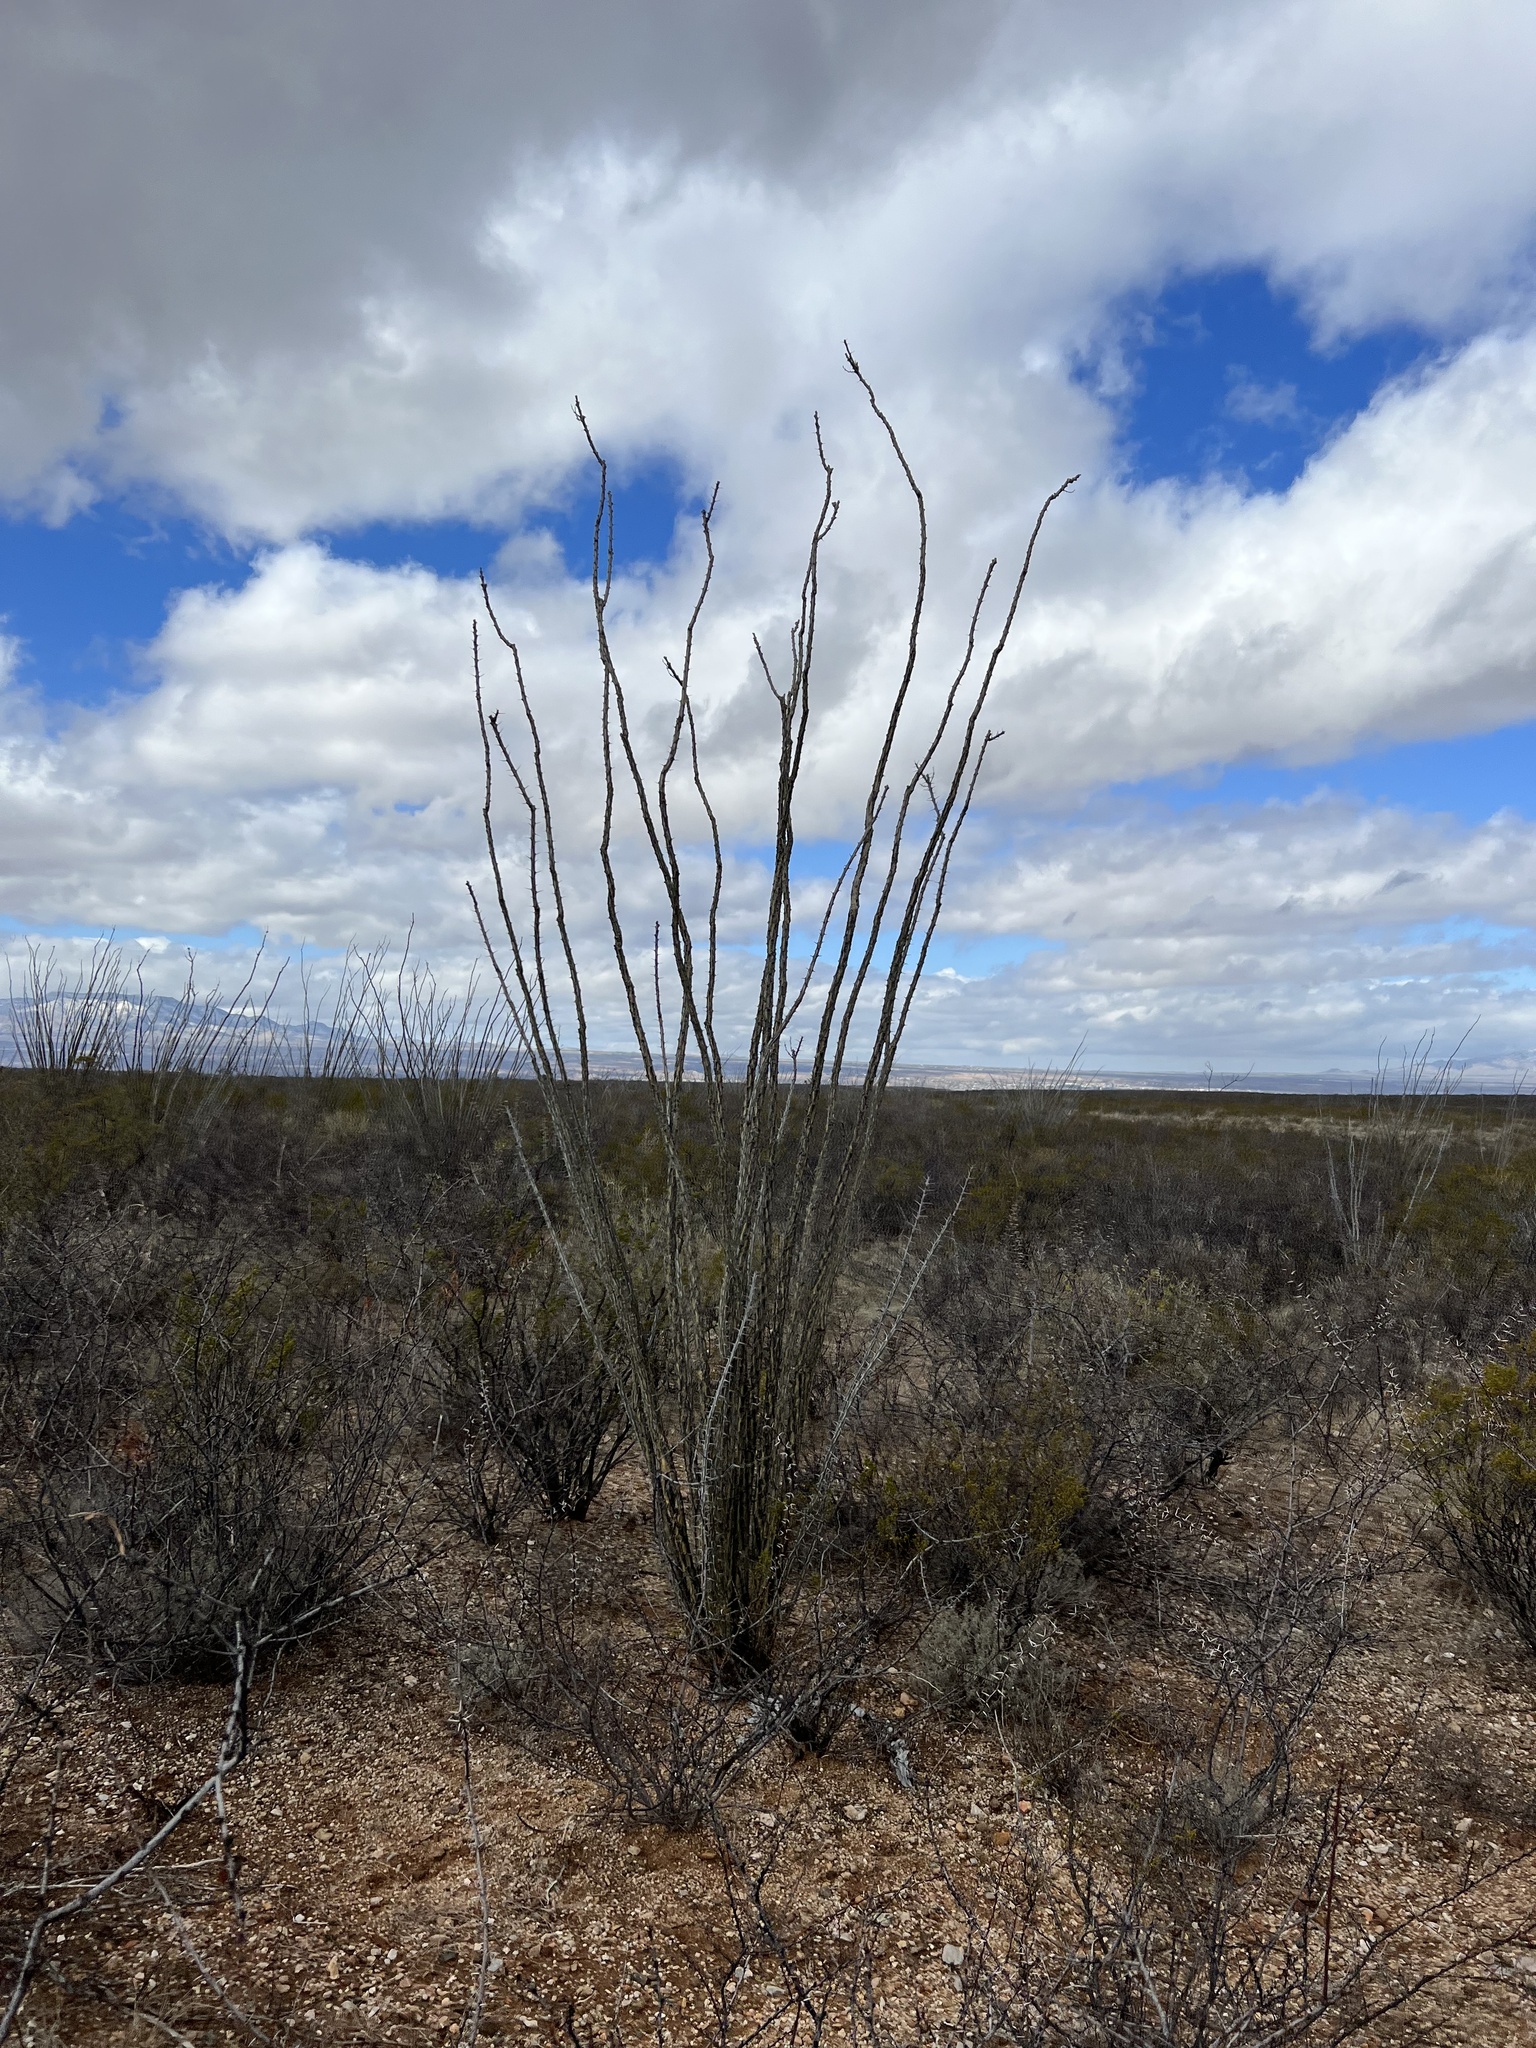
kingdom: Plantae
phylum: Tracheophyta
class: Magnoliopsida
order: Ericales
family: Fouquieriaceae
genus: Fouquieria
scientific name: Fouquieria splendens
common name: Vine-cactus
